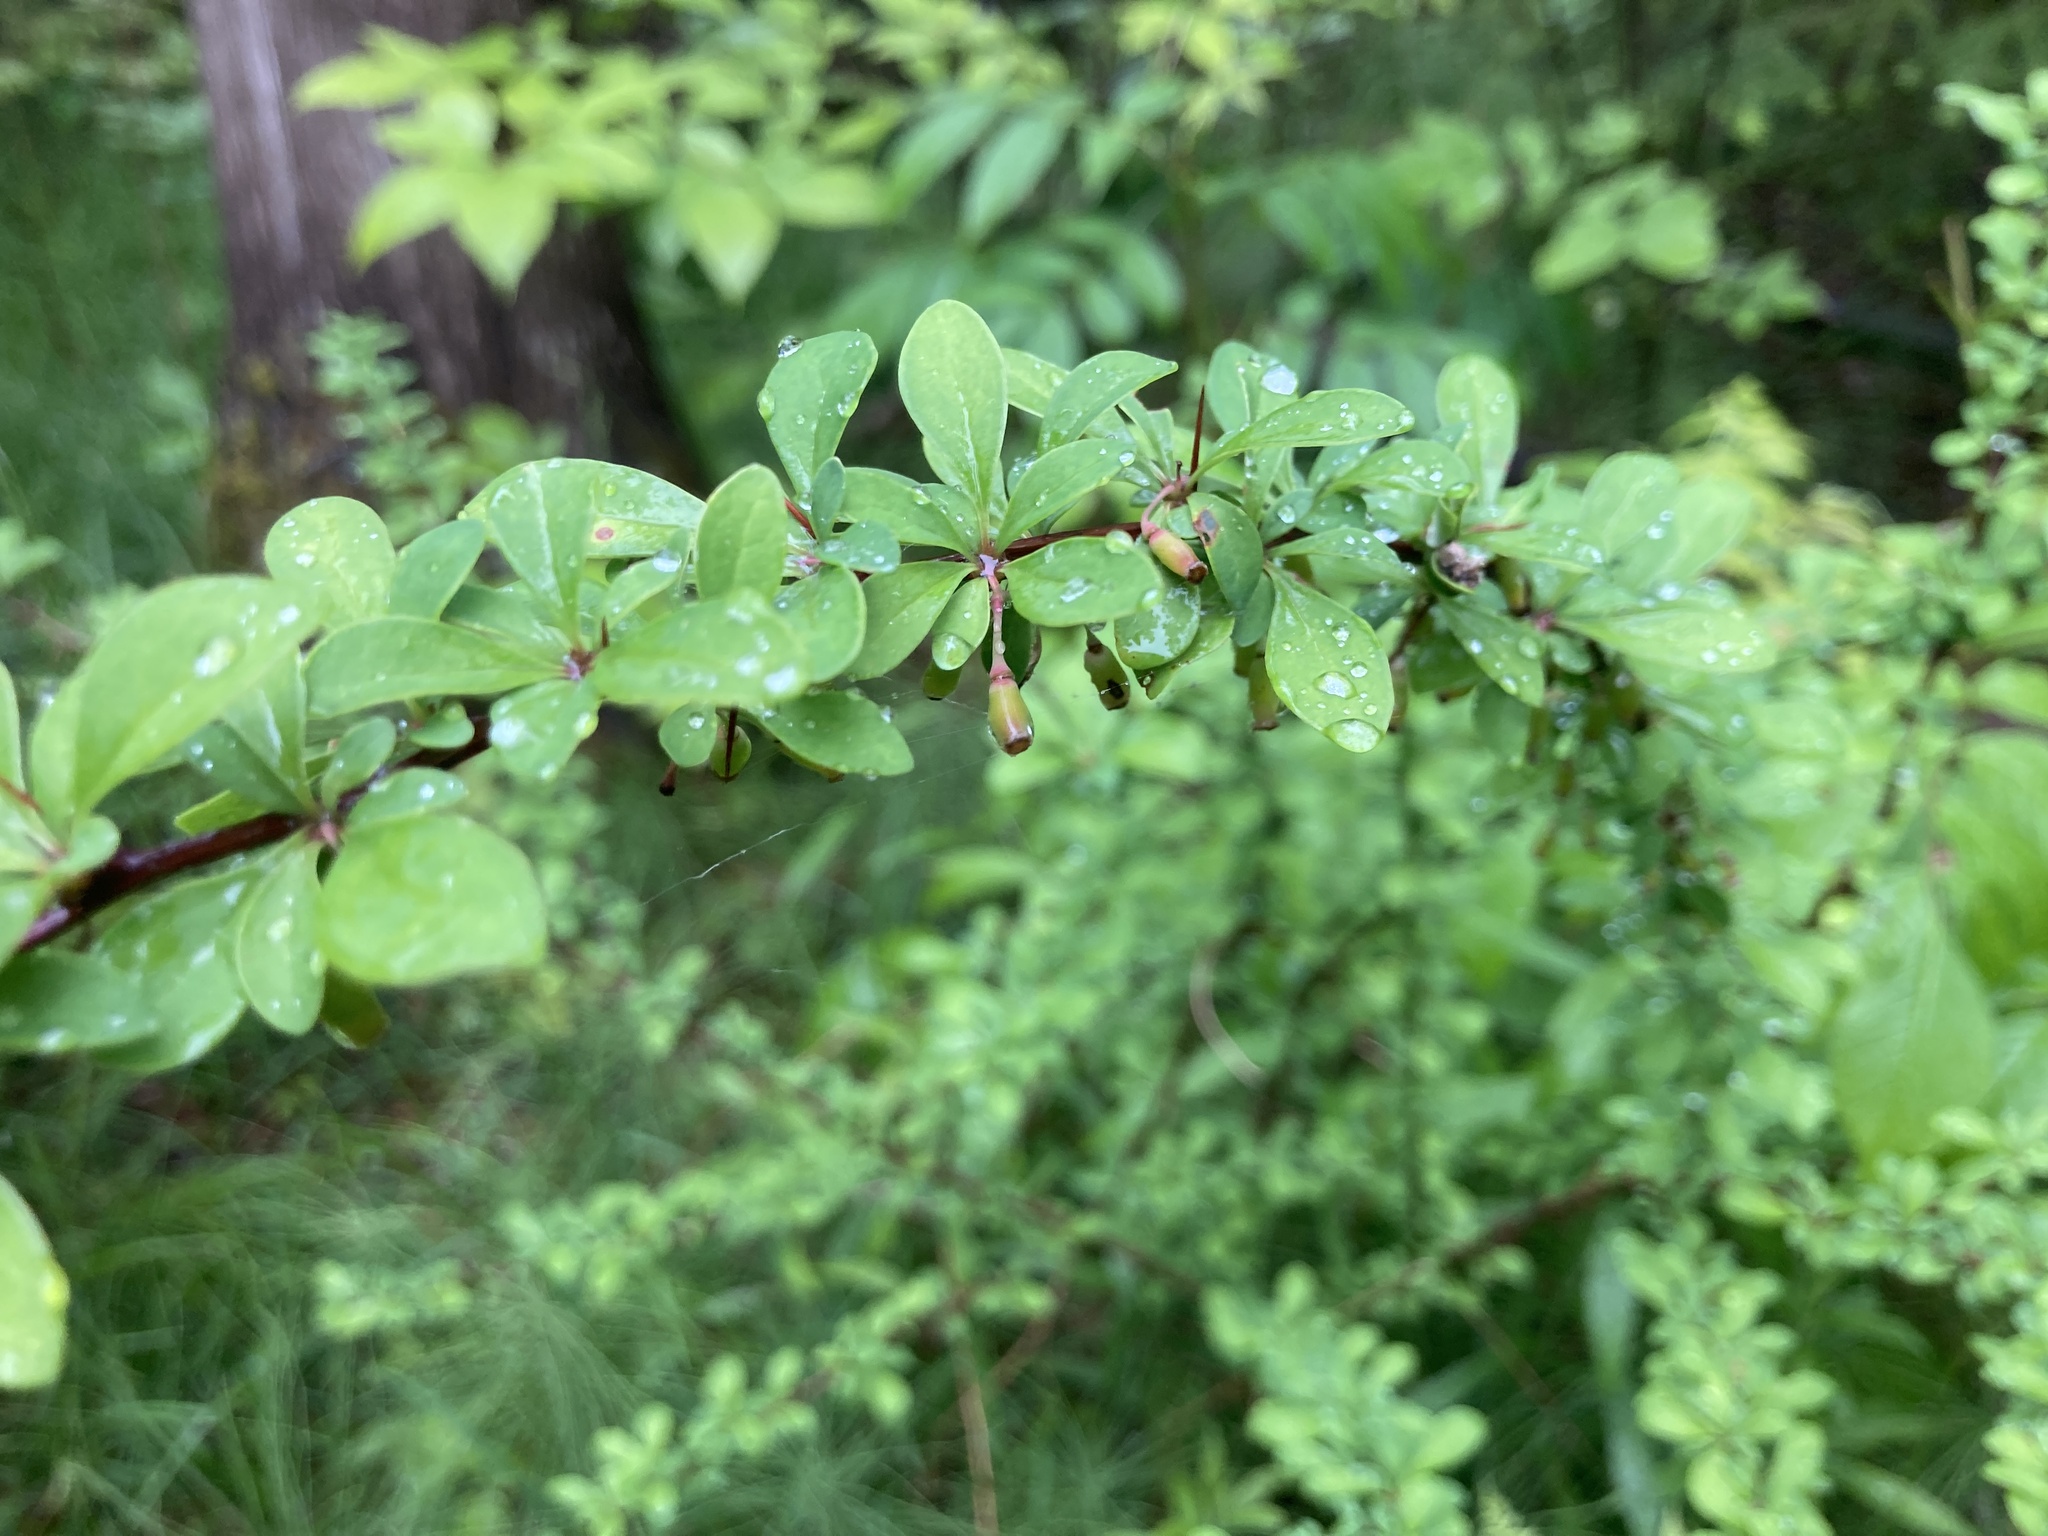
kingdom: Plantae
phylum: Tracheophyta
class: Magnoliopsida
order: Ranunculales
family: Berberidaceae
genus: Berberis
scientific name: Berberis thunbergii
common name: Japanese barberry
